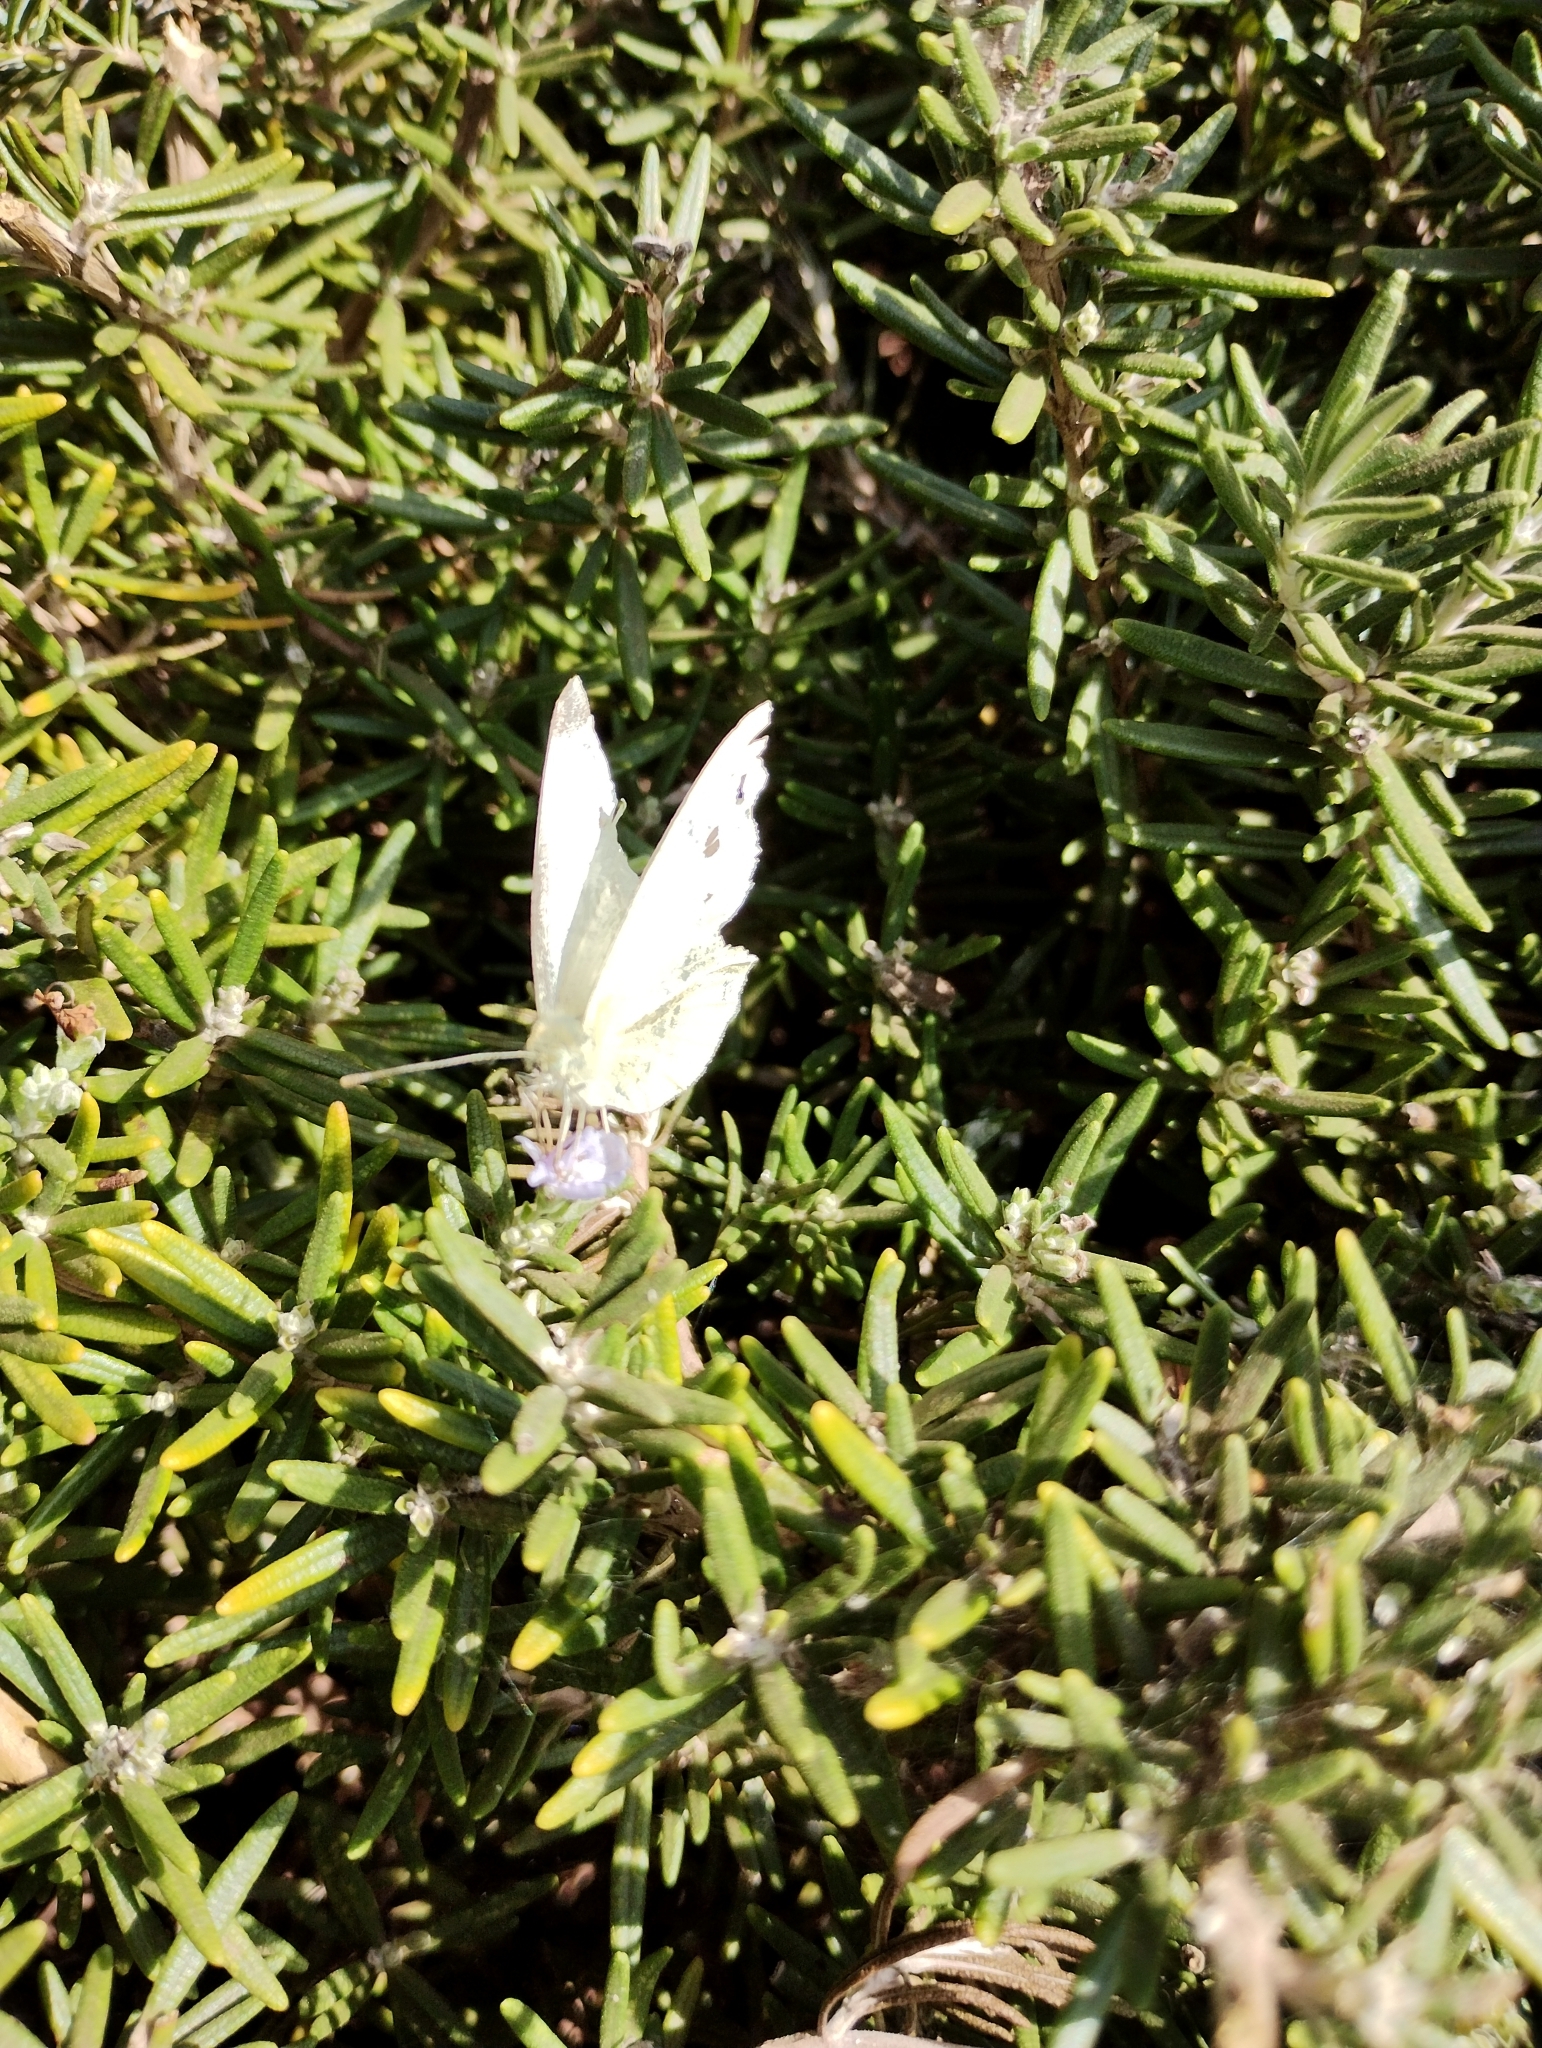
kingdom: Animalia
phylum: Arthropoda
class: Insecta
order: Lepidoptera
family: Pieridae
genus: Pieris
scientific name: Pieris rapae
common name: Small white
